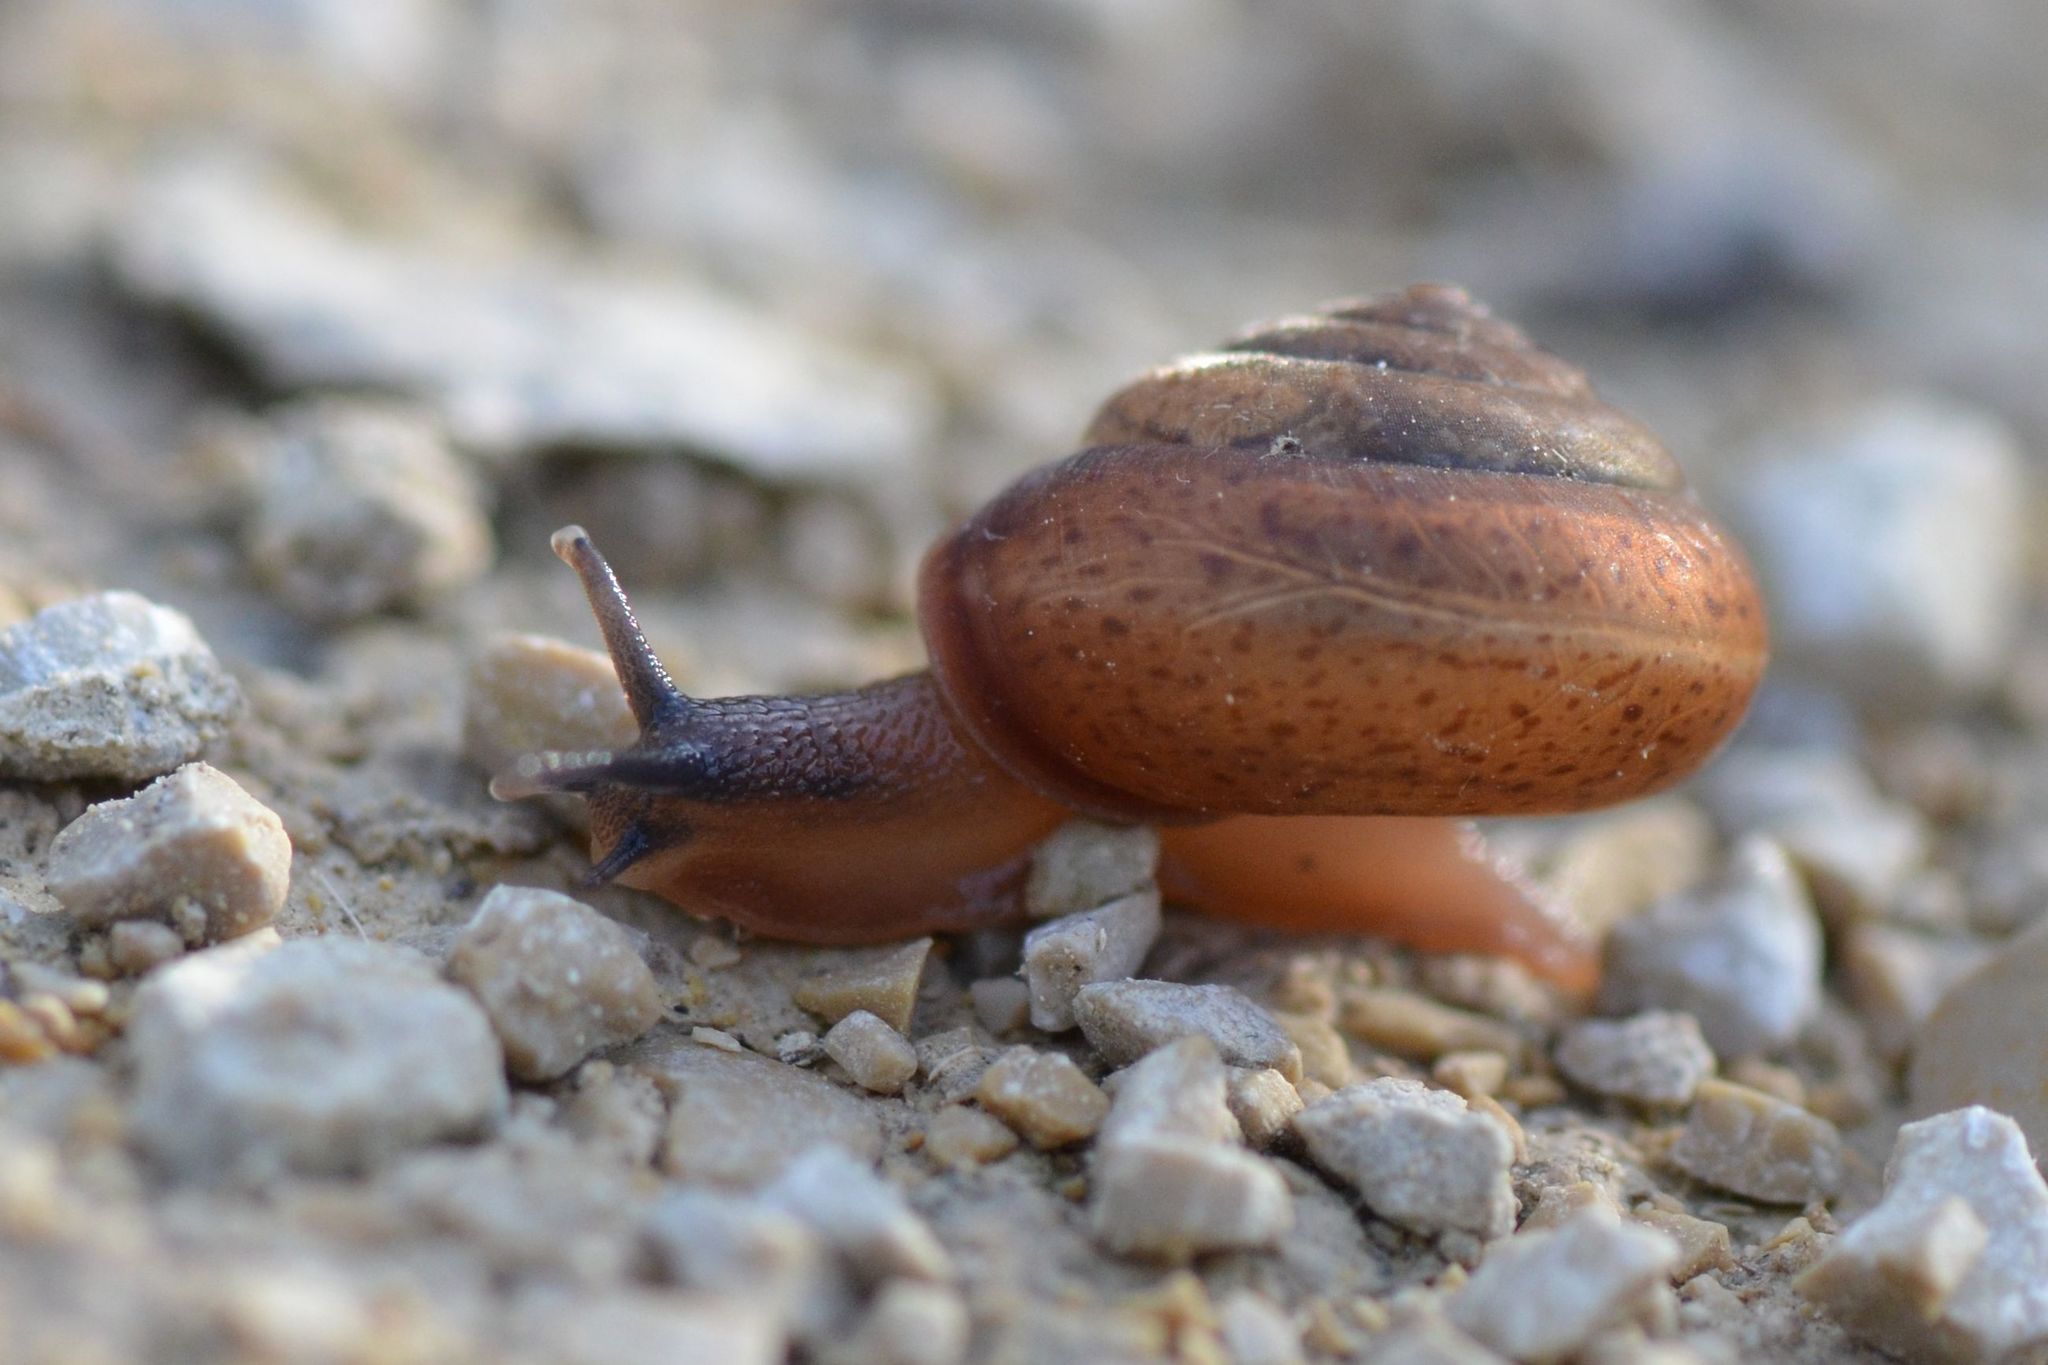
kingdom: Animalia
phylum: Mollusca
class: Gastropoda
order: Stylommatophora
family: Hygromiidae
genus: Monachoides
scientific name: Monachoides incarnatus
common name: Incarnate snail
